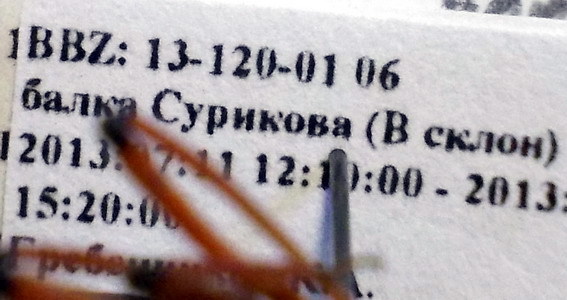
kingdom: Animalia
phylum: Arthropoda
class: Insecta
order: Hemiptera
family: Reduviidae
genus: Rhynocoris
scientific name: Rhynocoris iracundus
